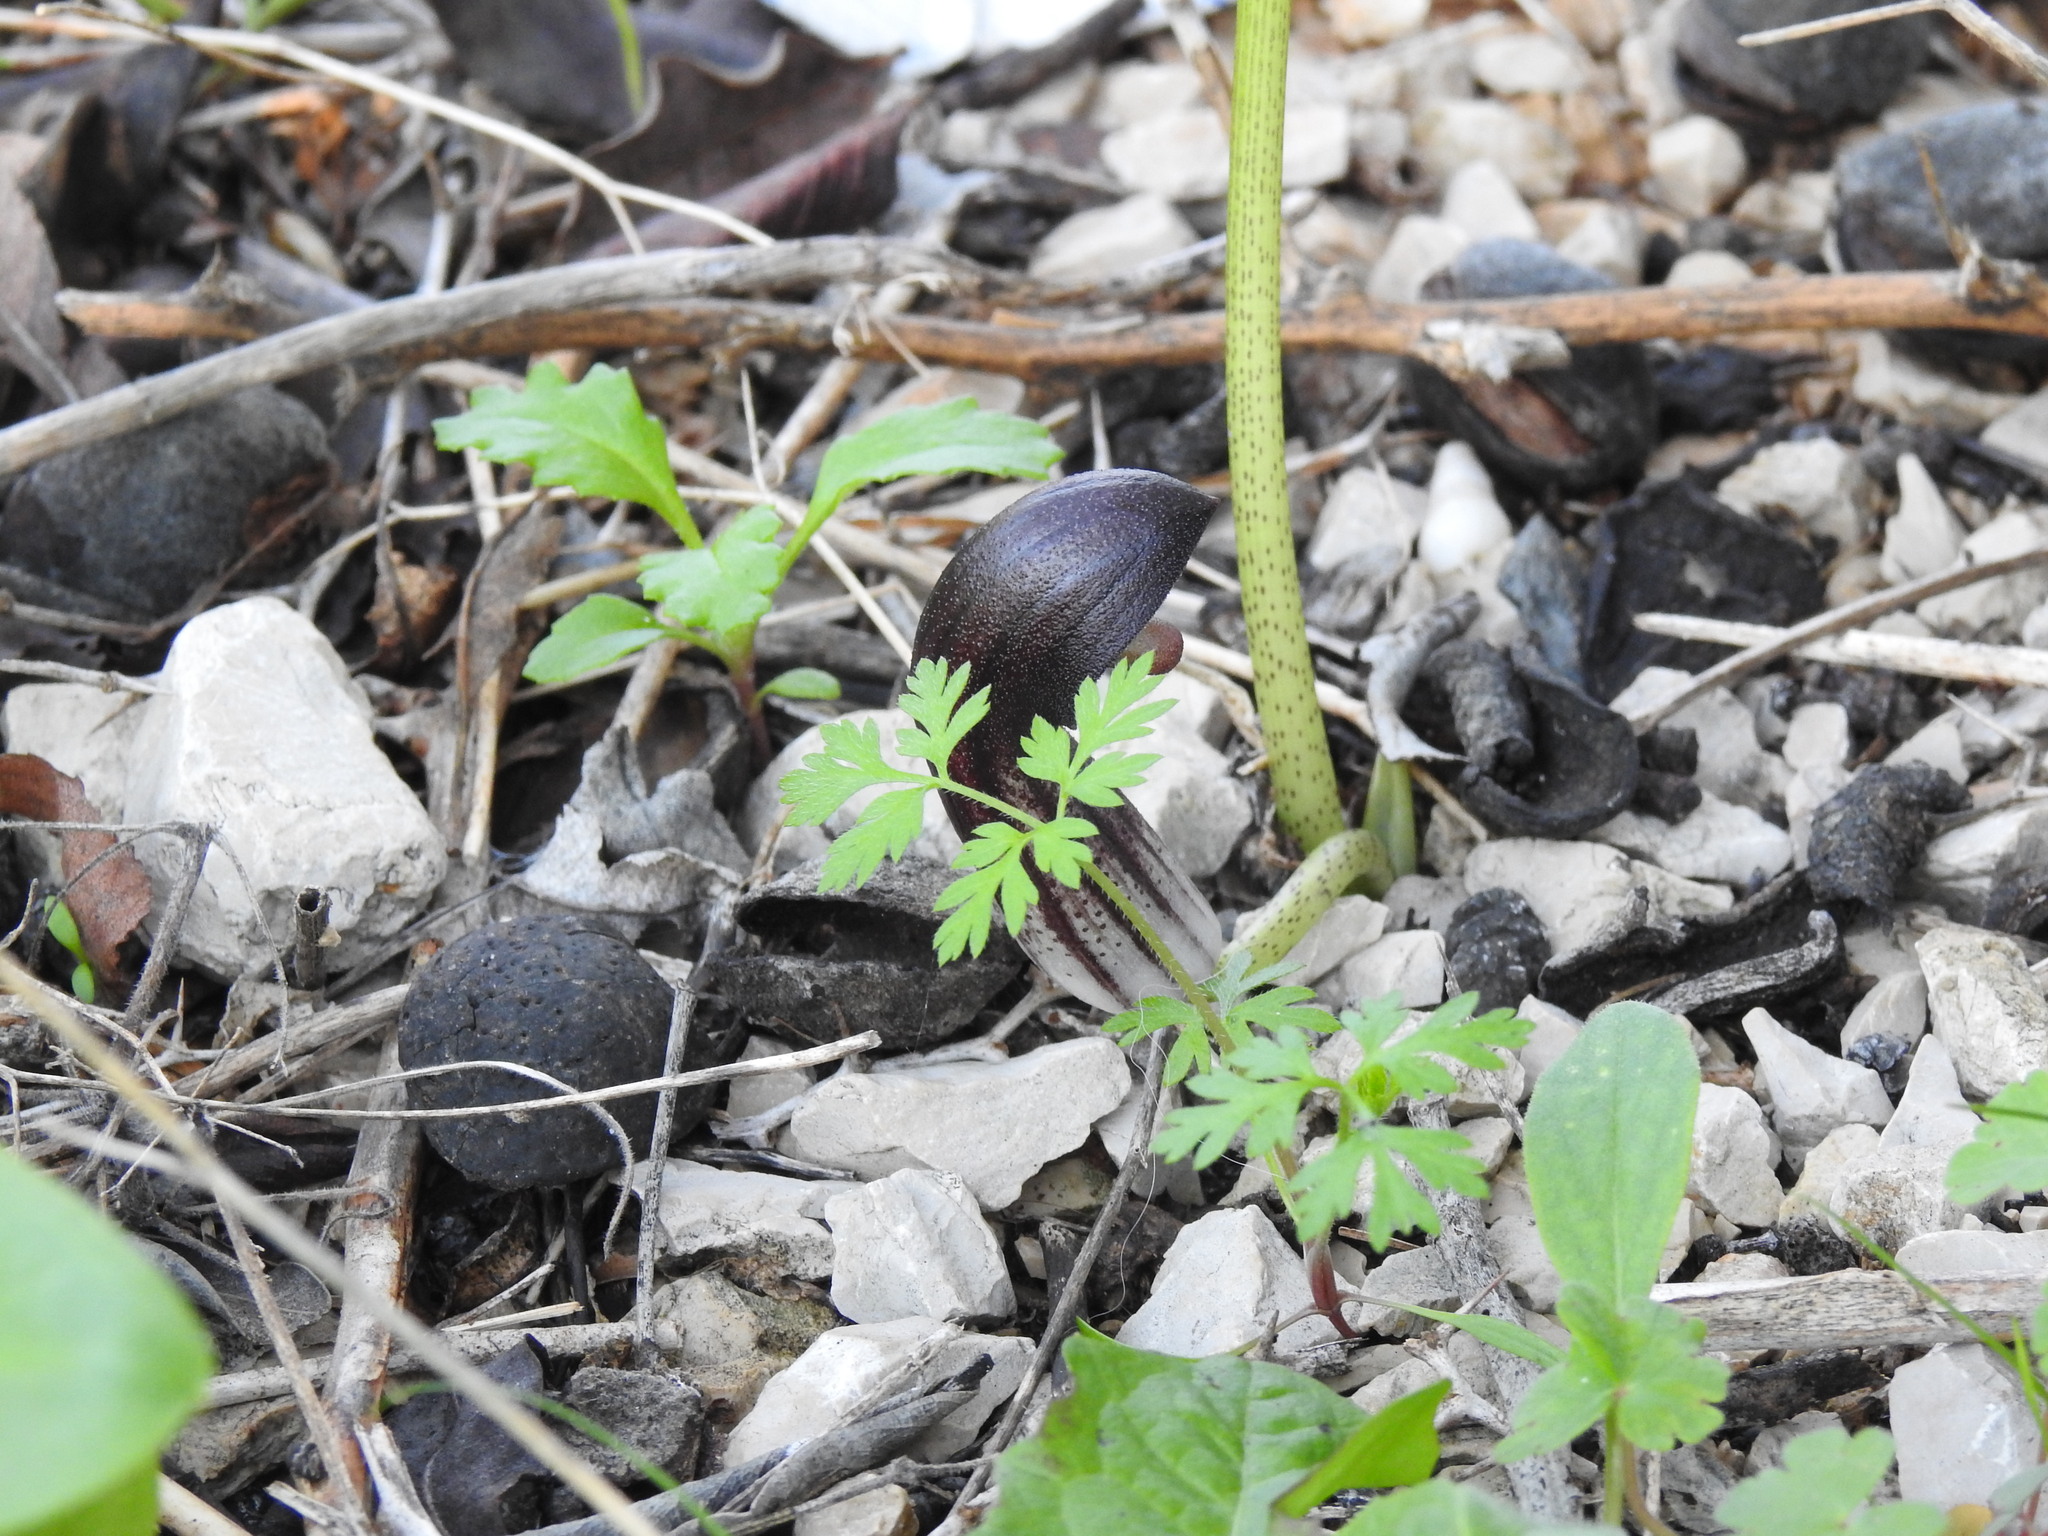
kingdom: Plantae
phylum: Tracheophyta
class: Liliopsida
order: Alismatales
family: Araceae
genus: Arisarum
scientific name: Arisarum simorrhinum
